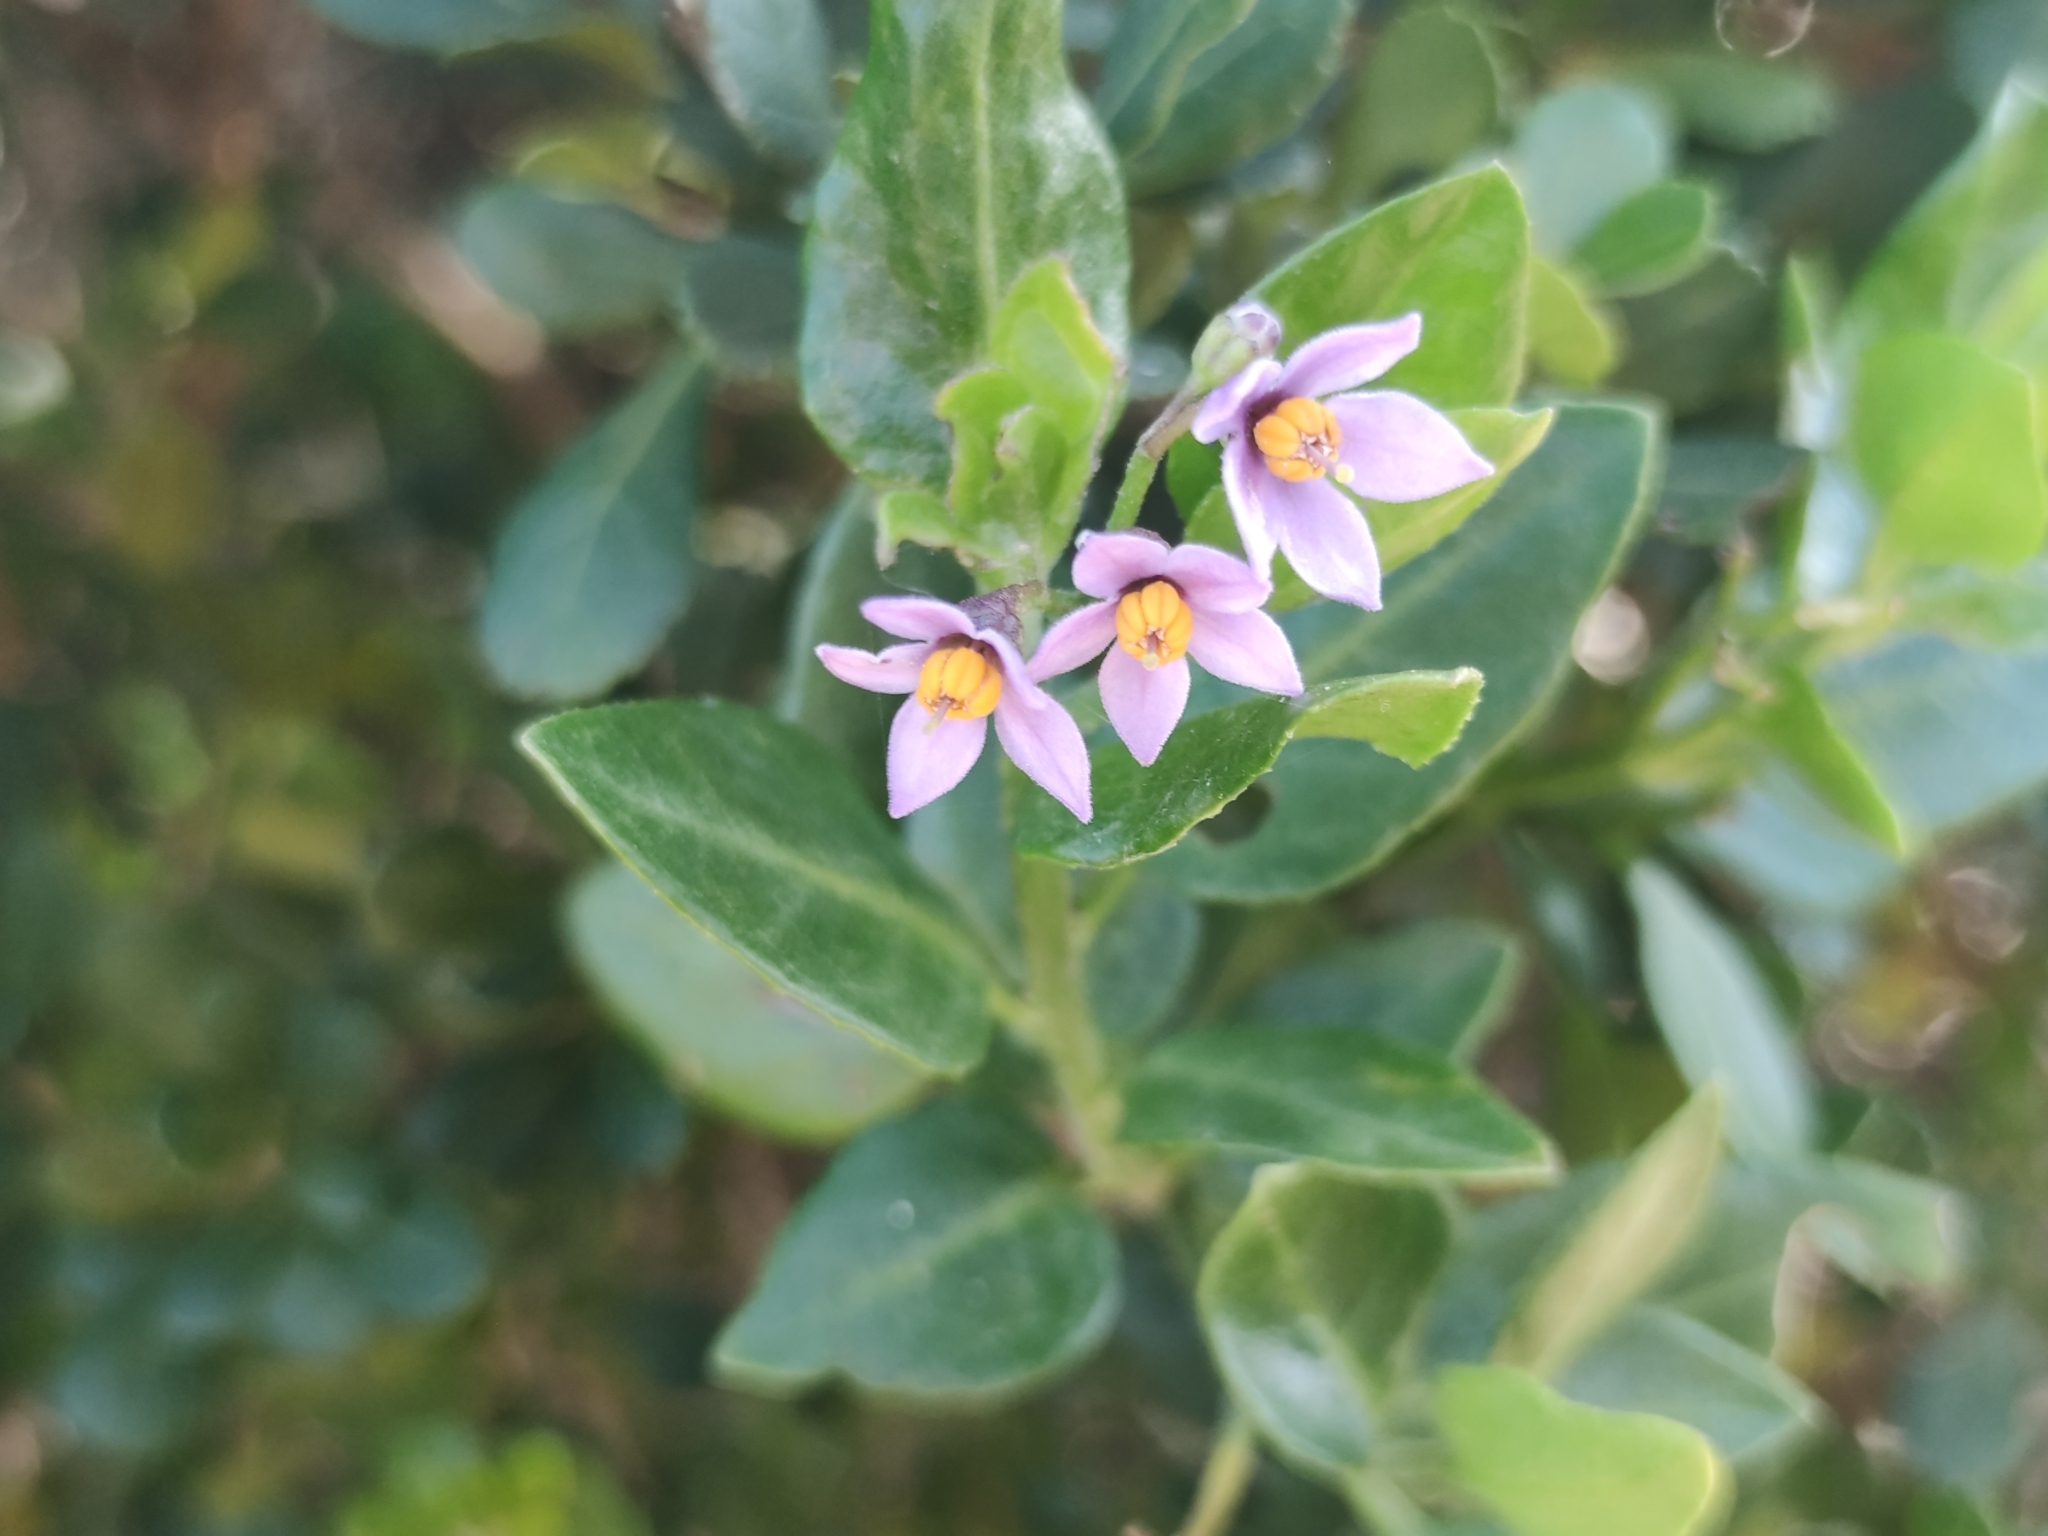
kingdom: Plantae
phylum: Tracheophyta
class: Magnoliopsida
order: Solanales
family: Solanaceae
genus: Solanum
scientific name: Solanum africanum
